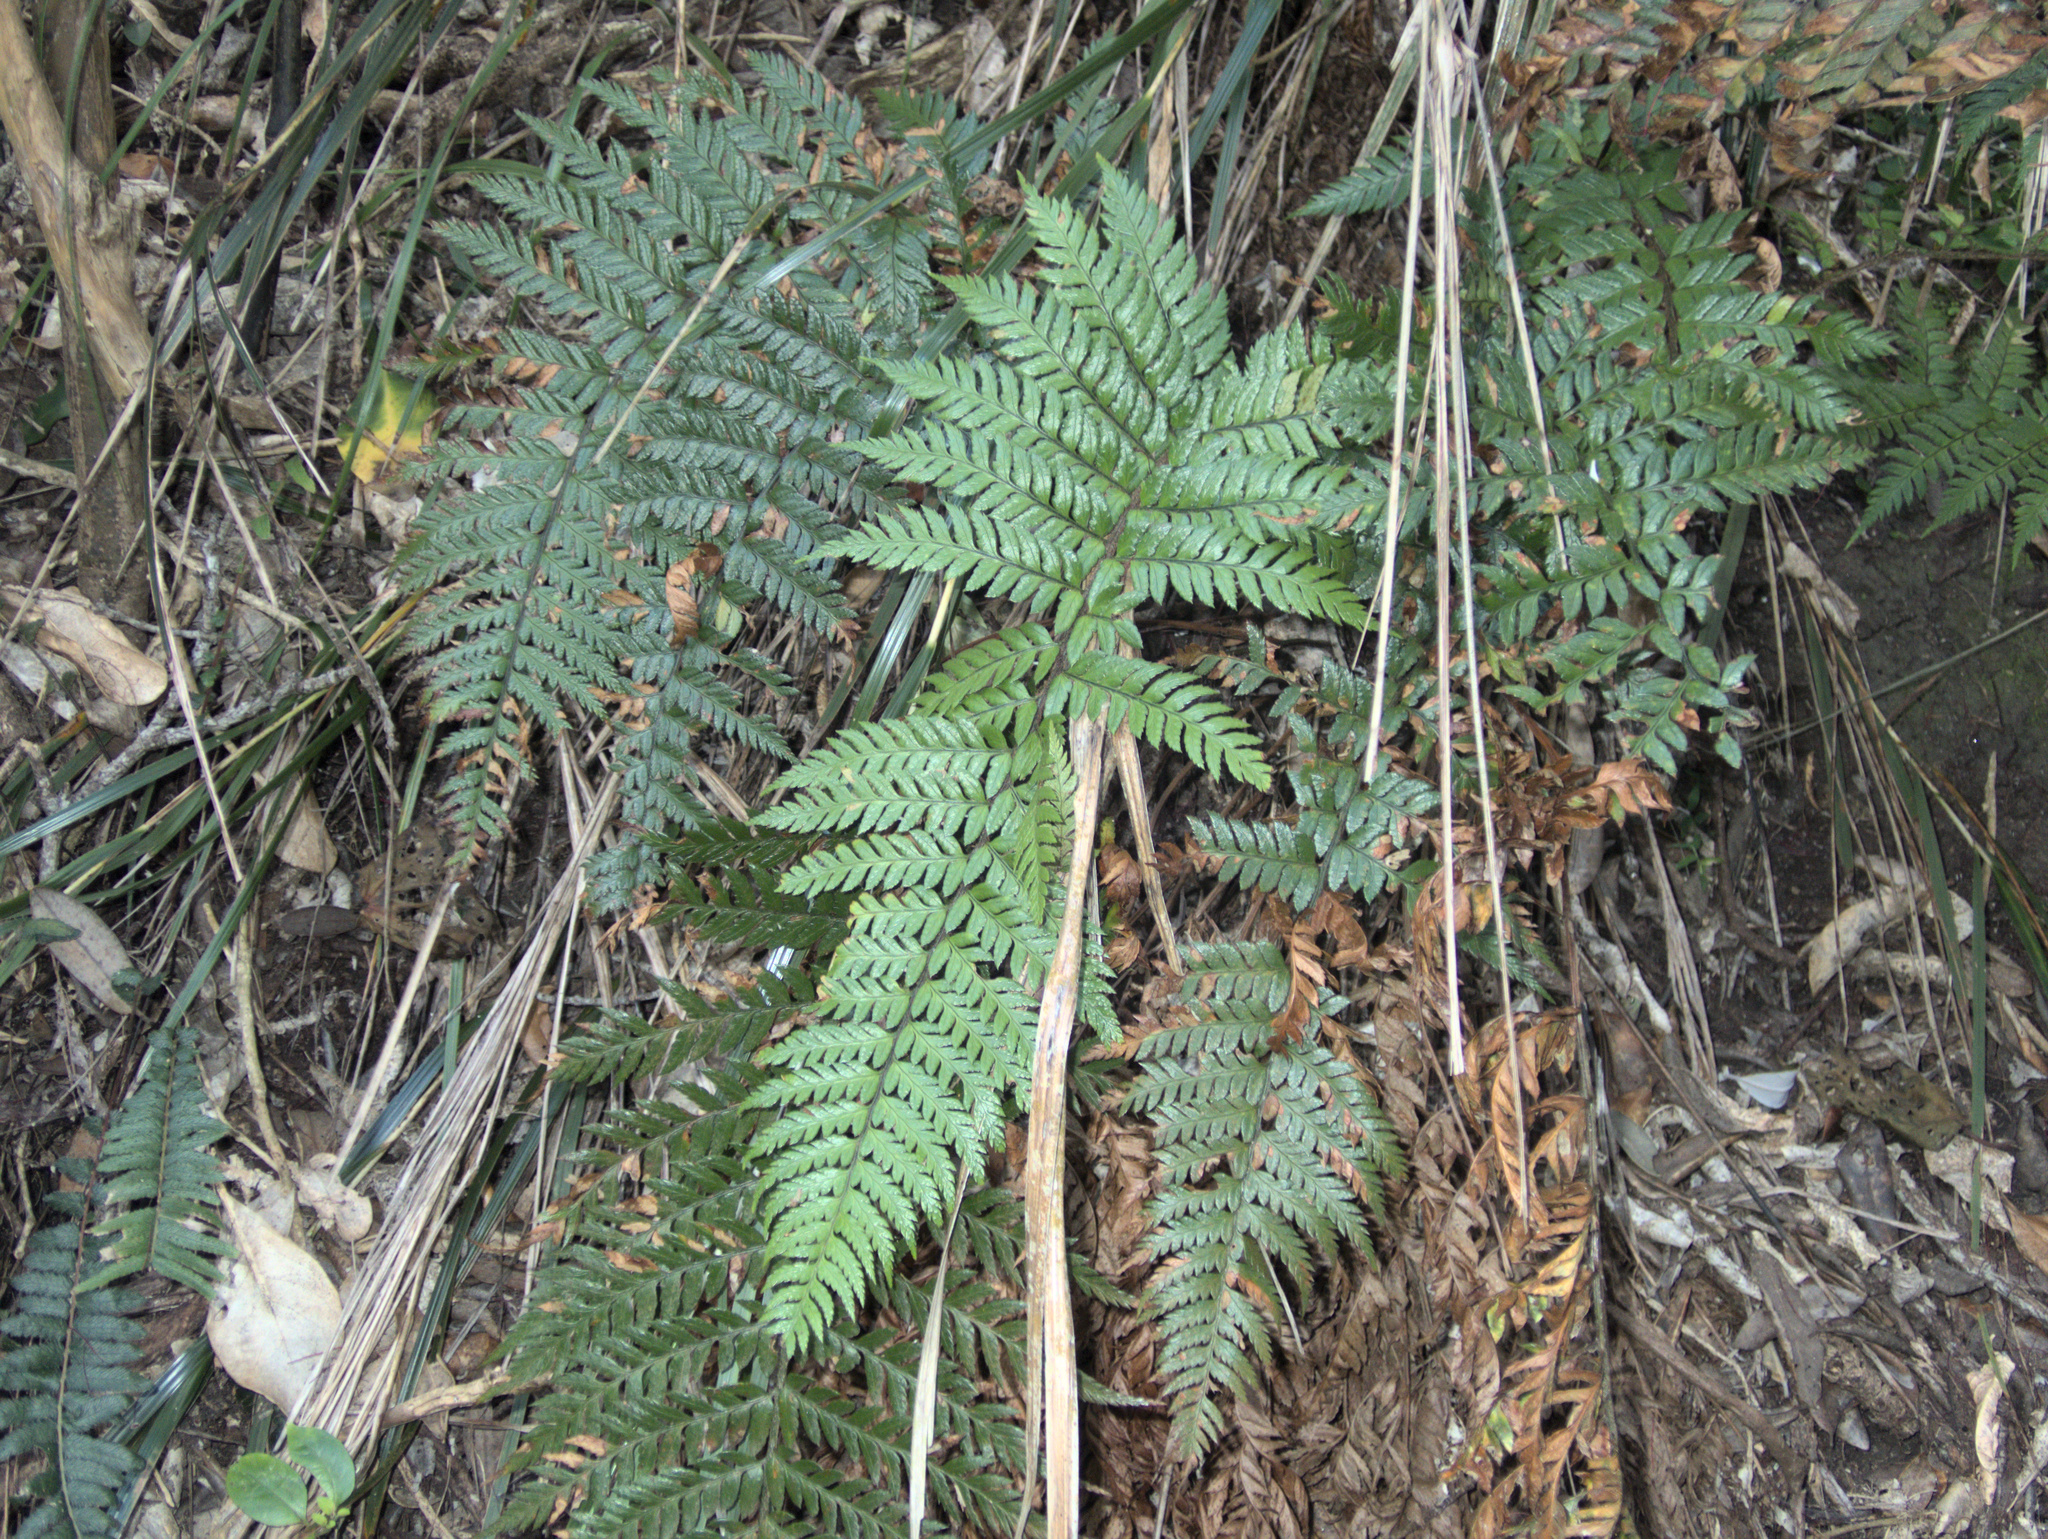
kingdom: Plantae
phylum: Tracheophyta
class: Polypodiopsida
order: Polypodiales
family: Dryopteridaceae
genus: Polystichum
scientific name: Polystichum wawranum
